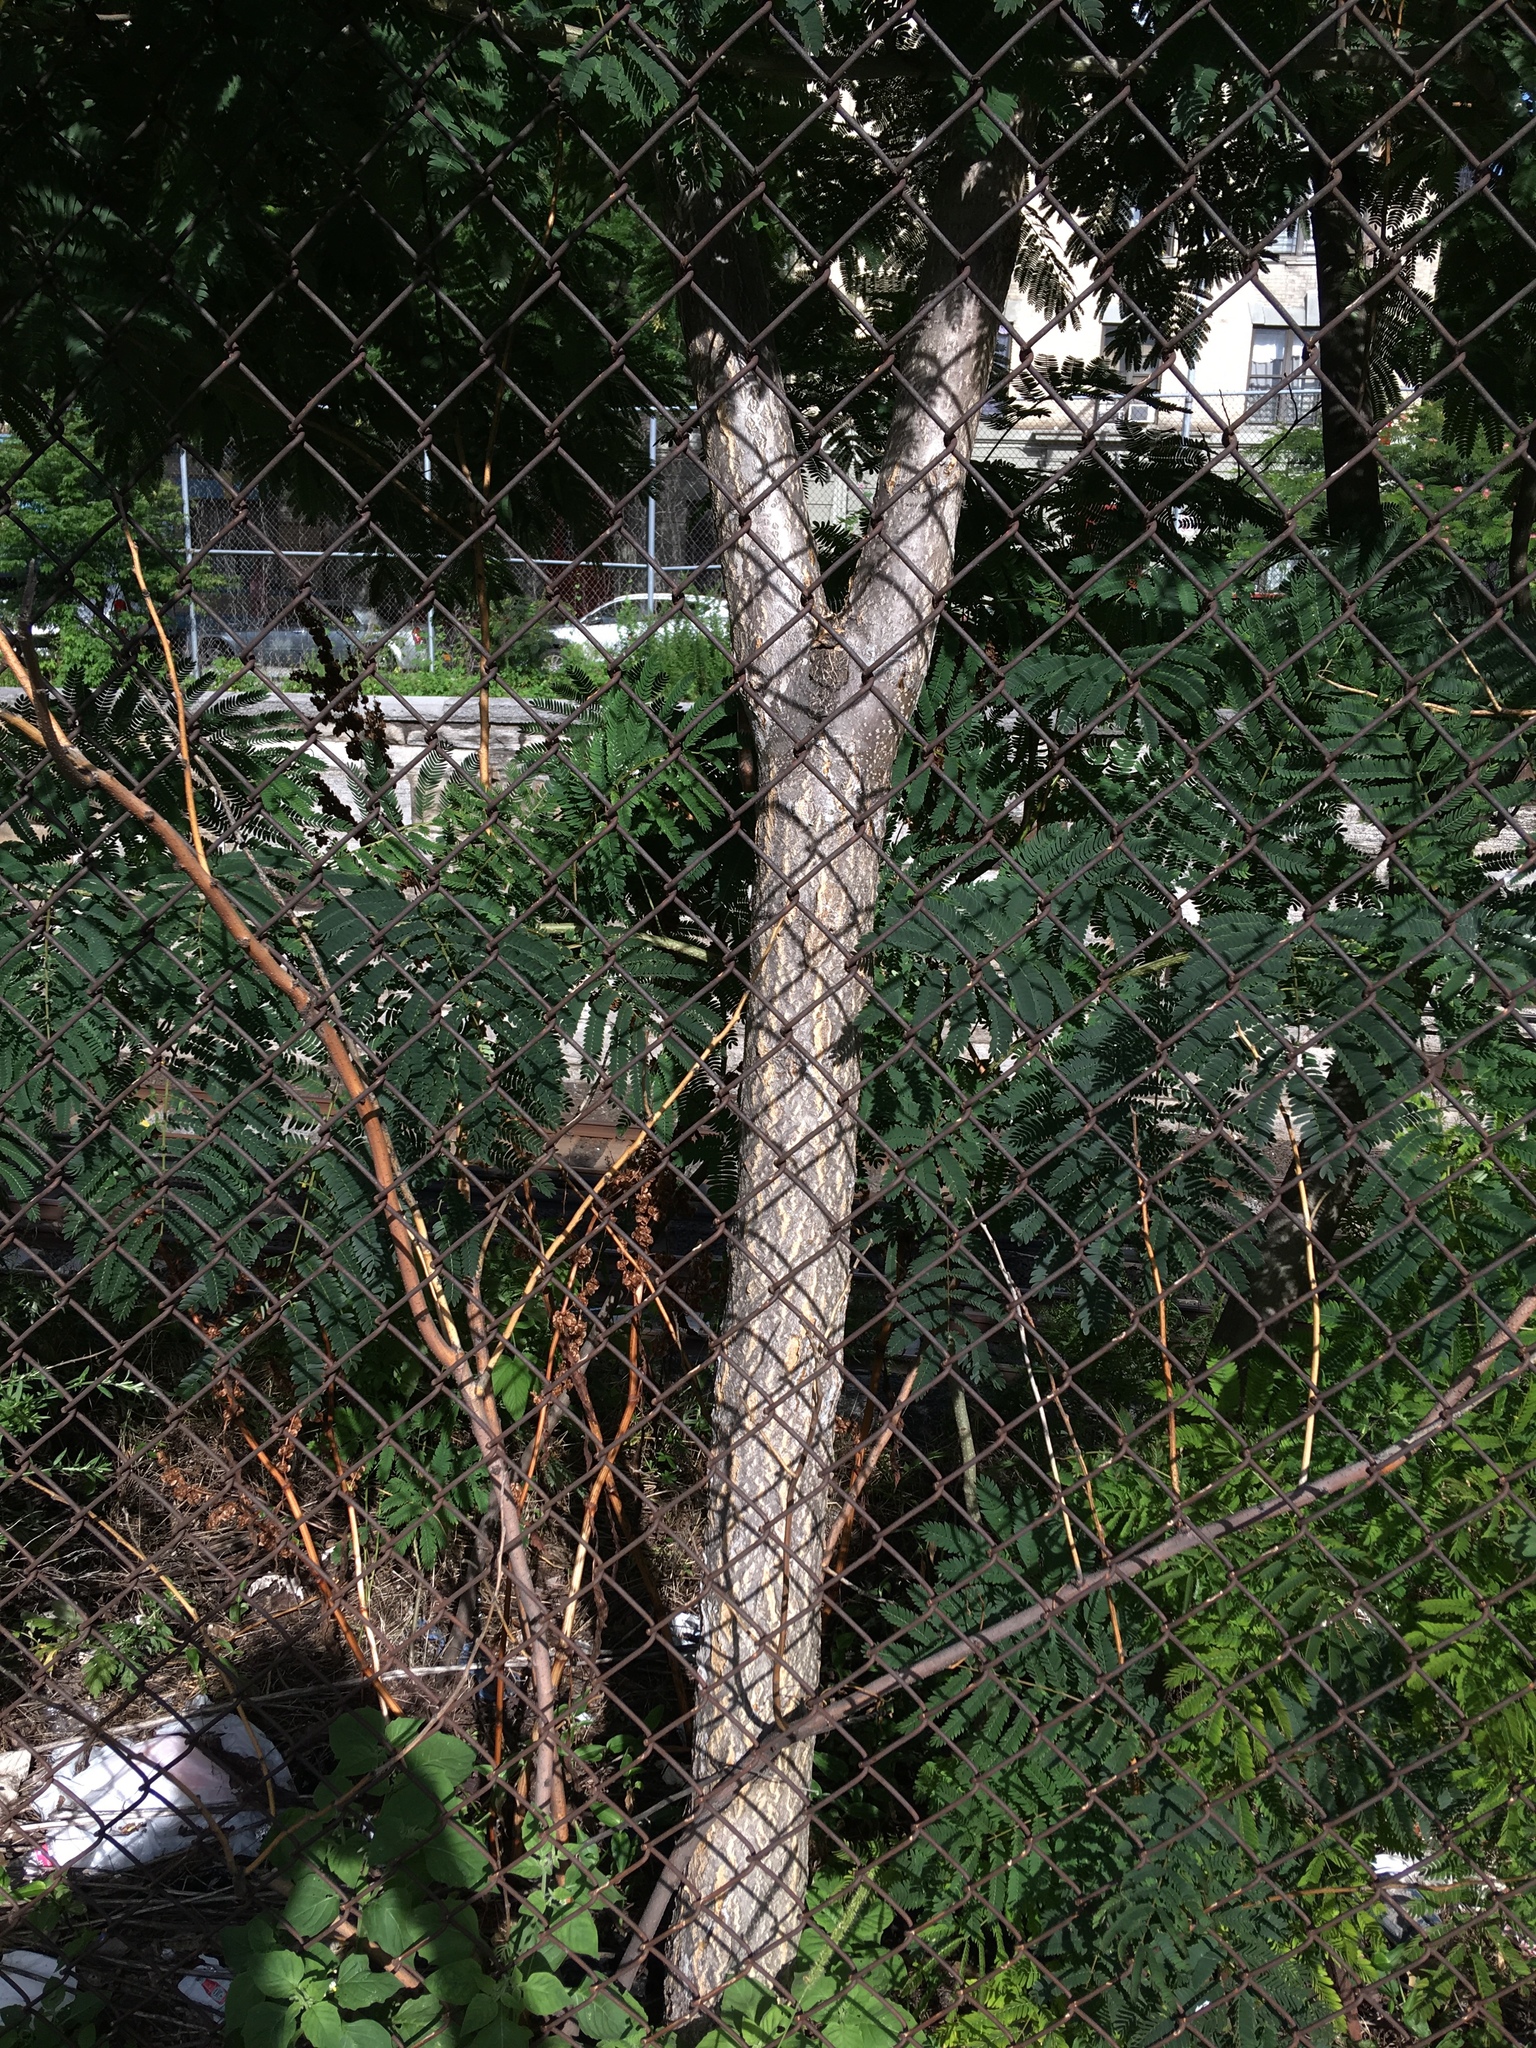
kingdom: Plantae
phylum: Tracheophyta
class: Magnoliopsida
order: Sapindales
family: Simaroubaceae
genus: Ailanthus
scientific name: Ailanthus altissima
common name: Tree-of-heaven
